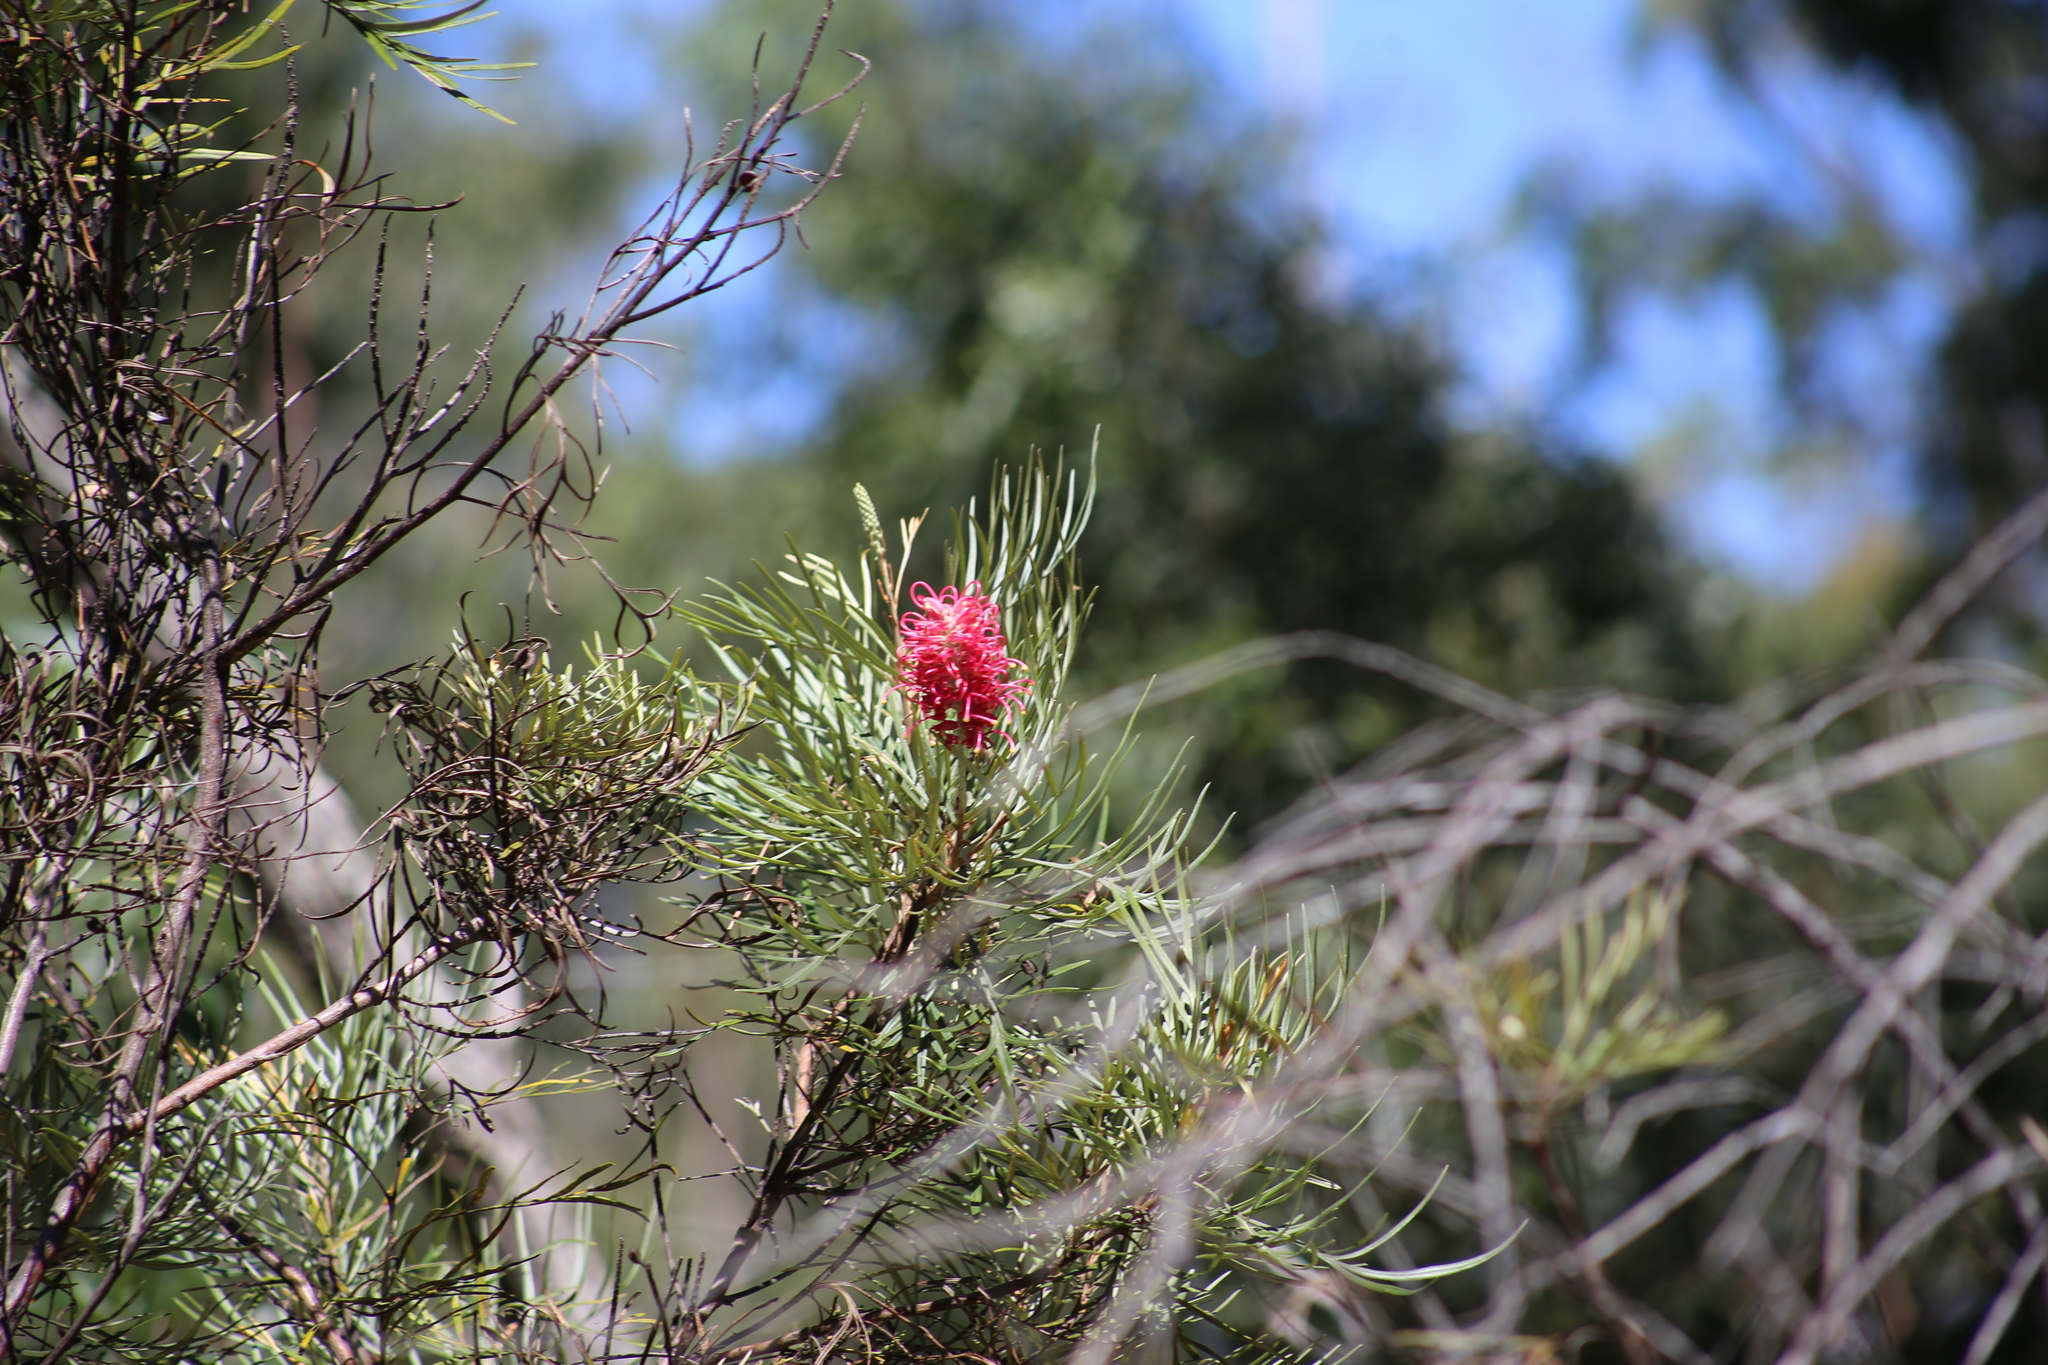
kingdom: Plantae
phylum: Tracheophyta
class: Magnoliopsida
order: Proteales
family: Proteaceae
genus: Grevillea
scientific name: Grevillea banksii
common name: Kahili flower
